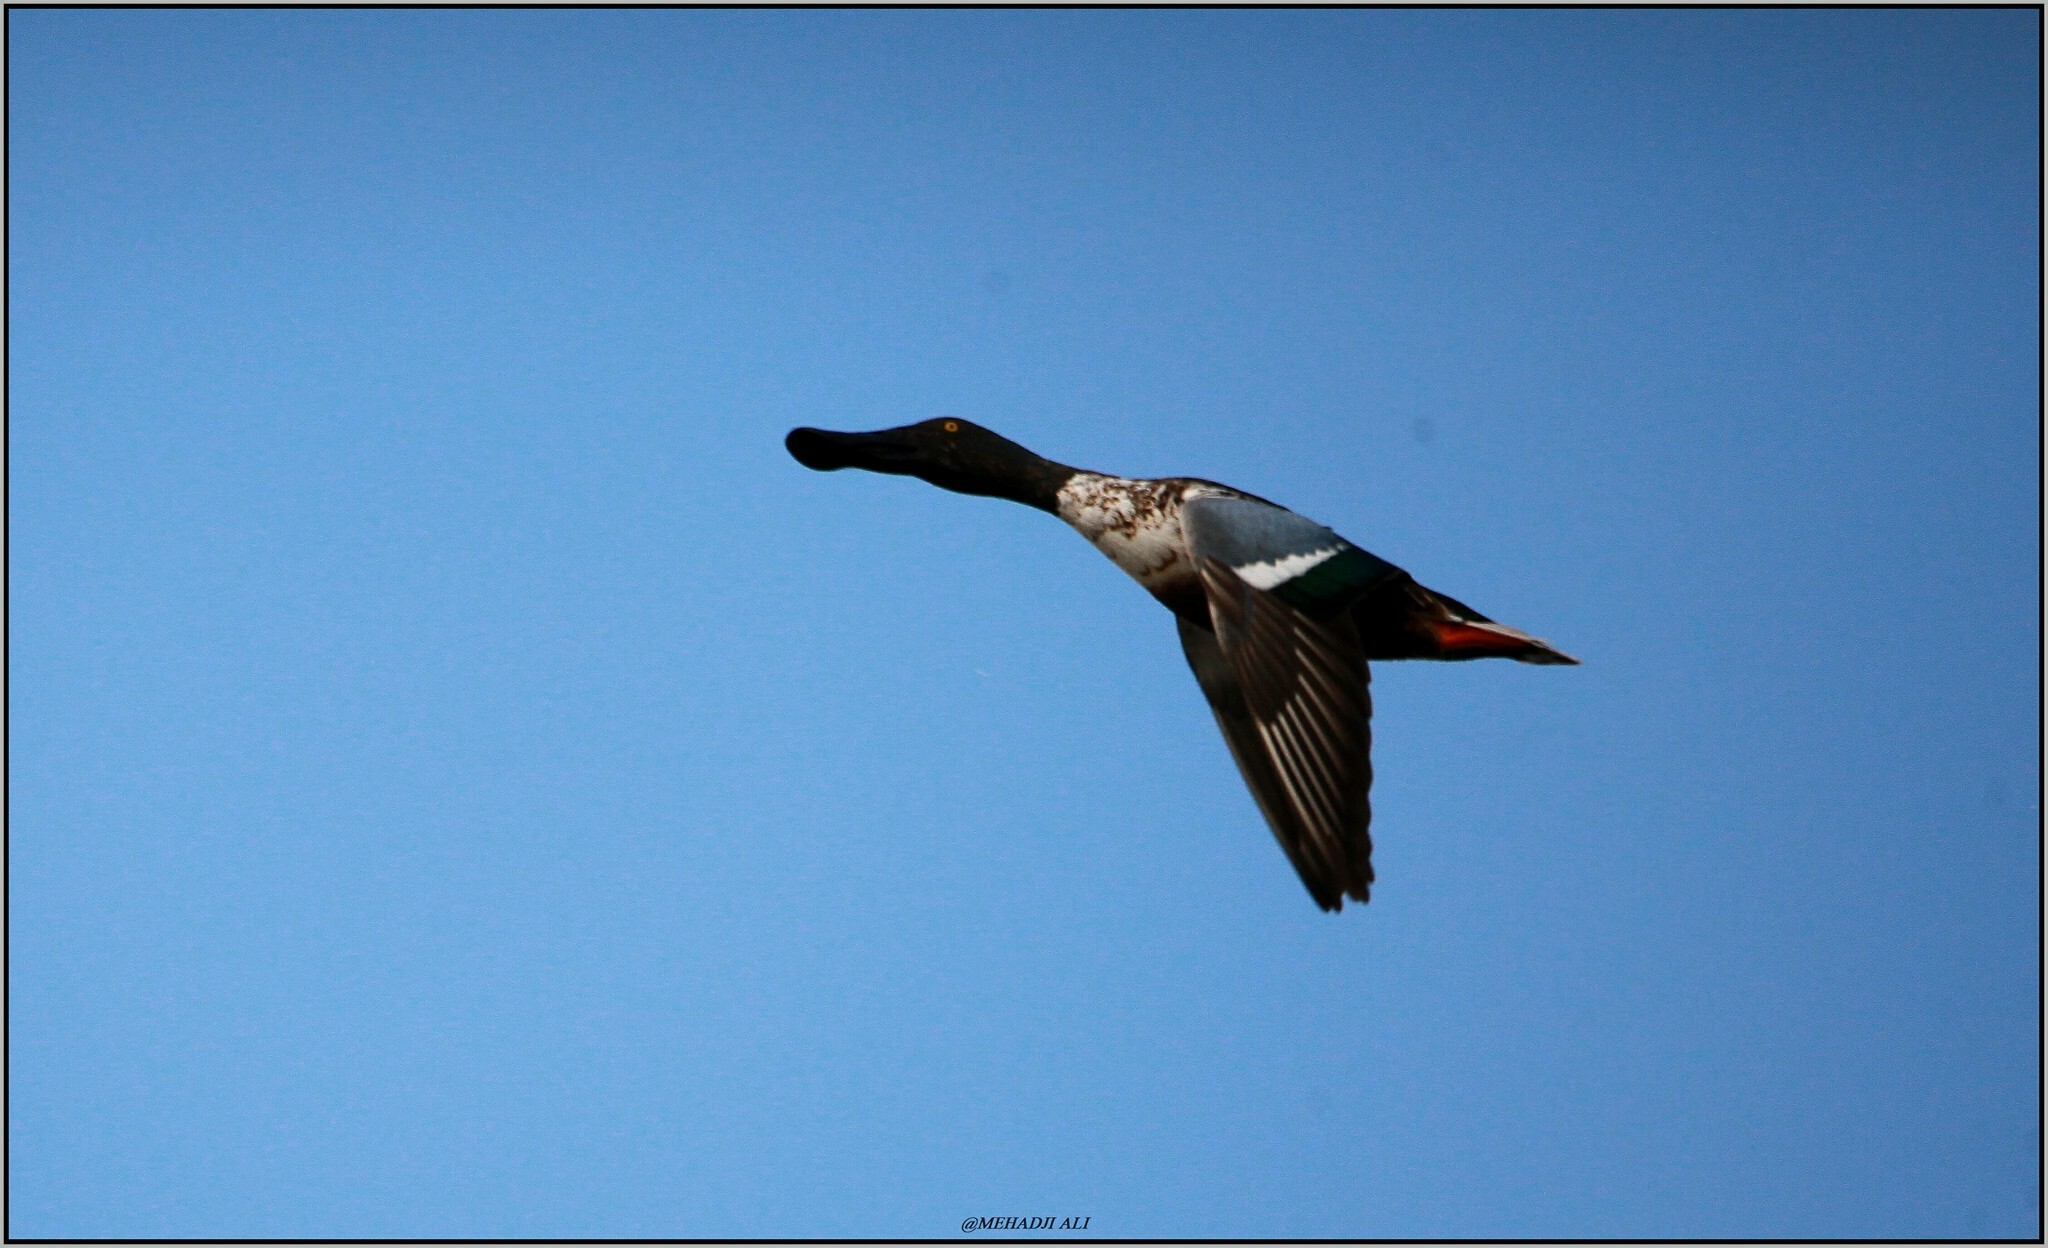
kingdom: Animalia
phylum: Chordata
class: Aves
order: Anseriformes
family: Anatidae
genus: Spatula
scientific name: Spatula clypeata
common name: Northern shoveler
